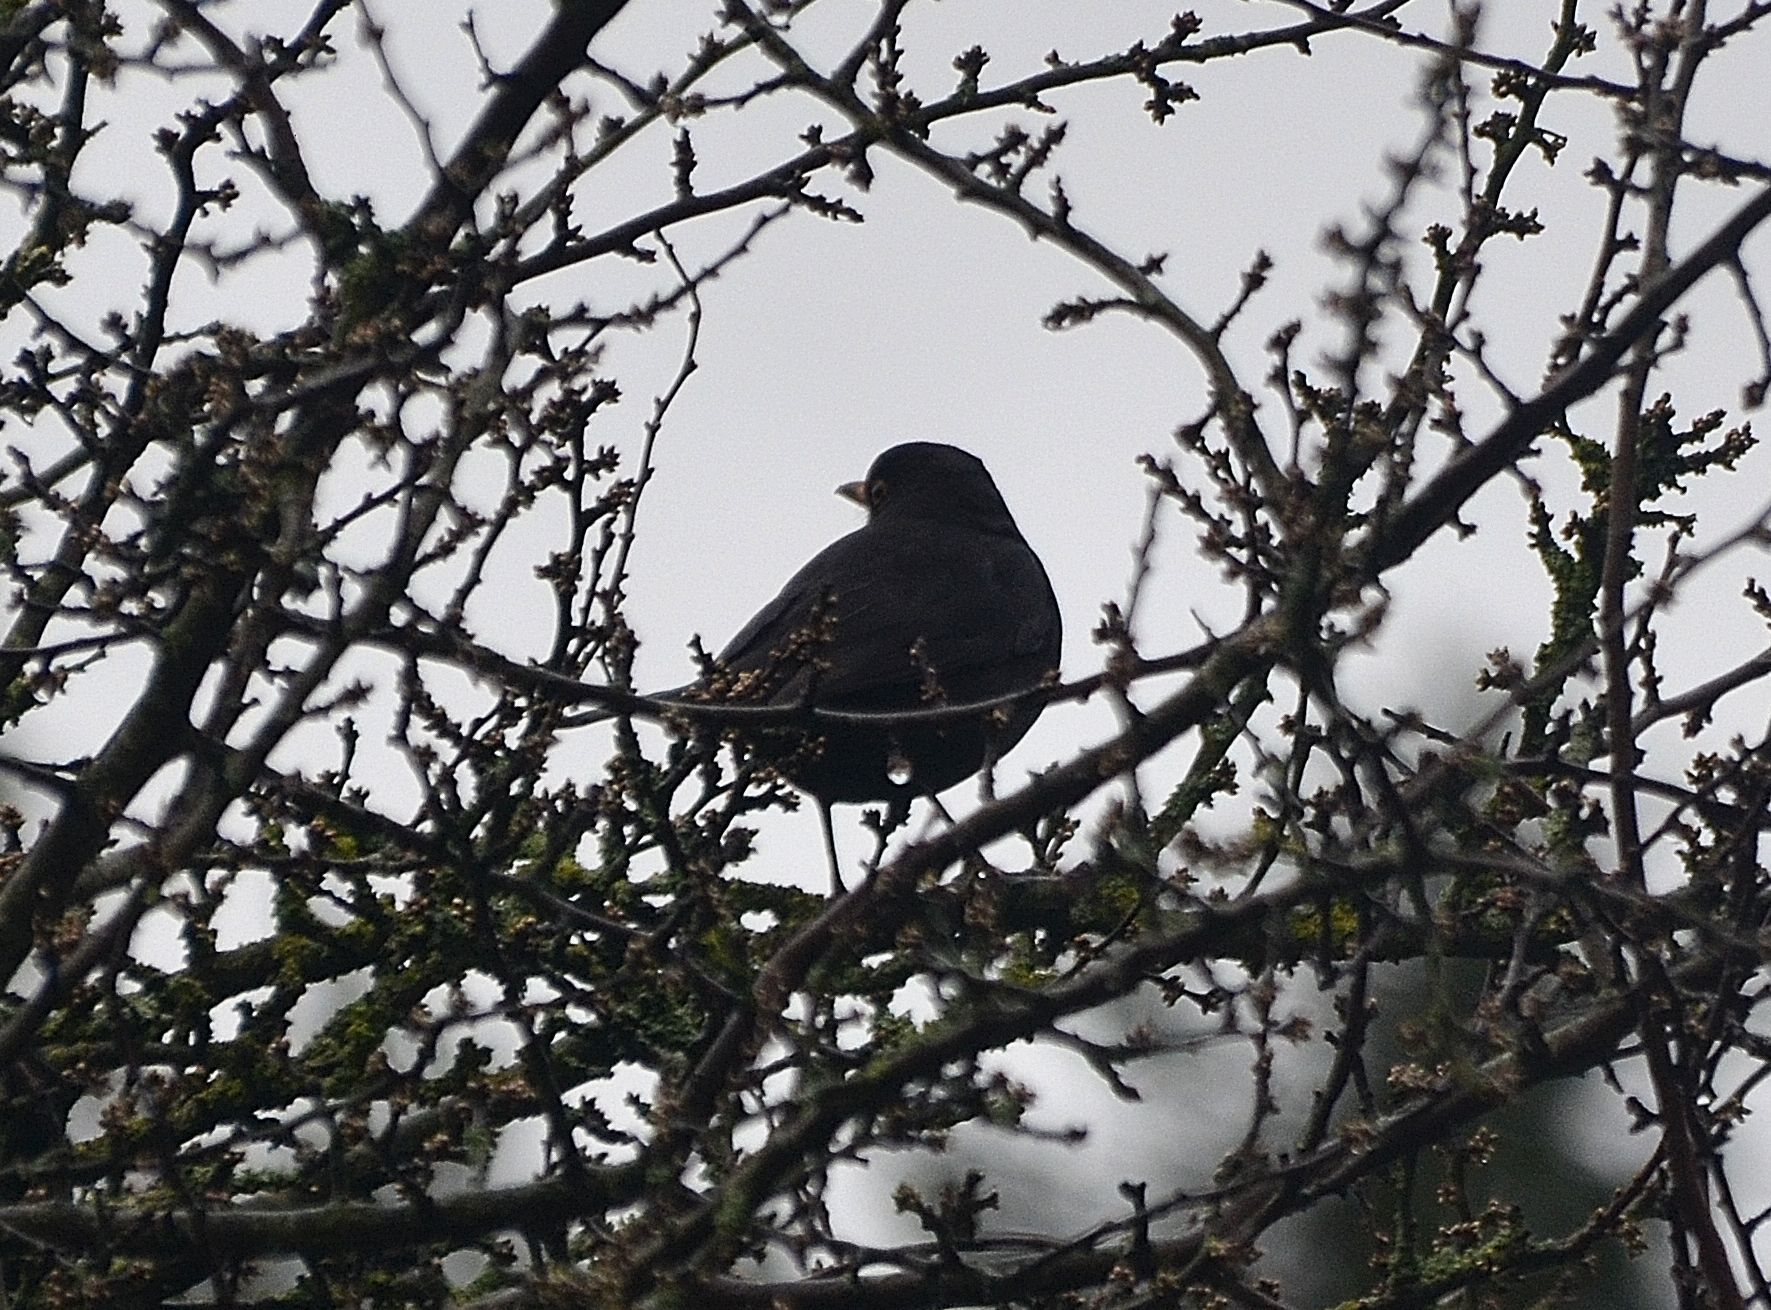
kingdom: Animalia
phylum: Chordata
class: Aves
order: Passeriformes
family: Turdidae
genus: Turdus
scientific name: Turdus merula
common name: Common blackbird
